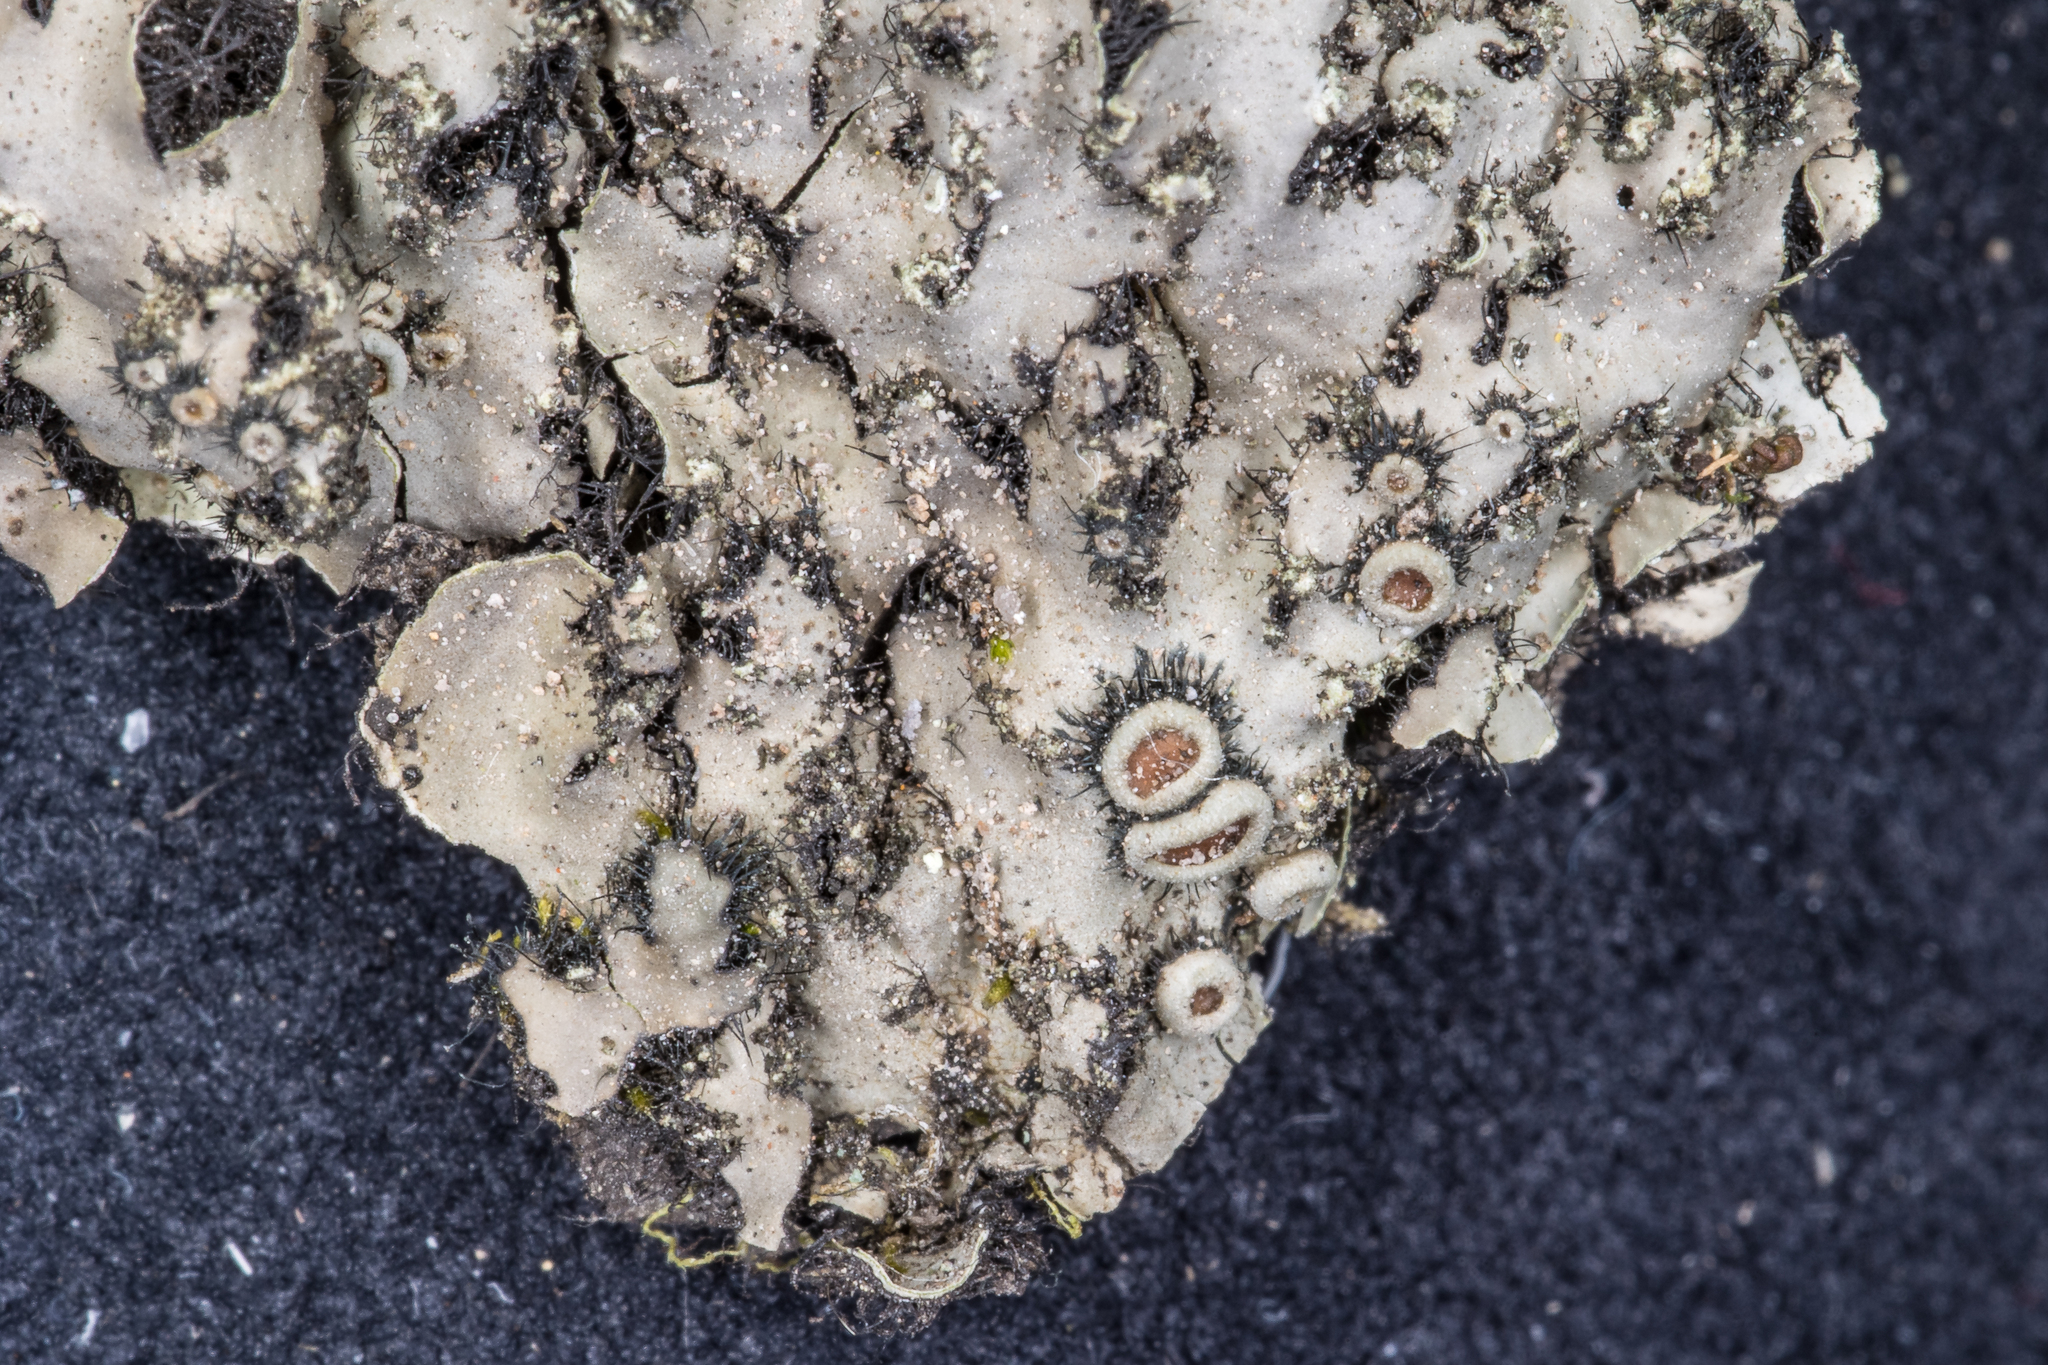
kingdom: Fungi
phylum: Ascomycota
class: Lecanoromycetes
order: Caliciales
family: Physciaceae
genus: Phaeophyscia
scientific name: Phaeophyscia ciliata
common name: Smooth shadow lichen
